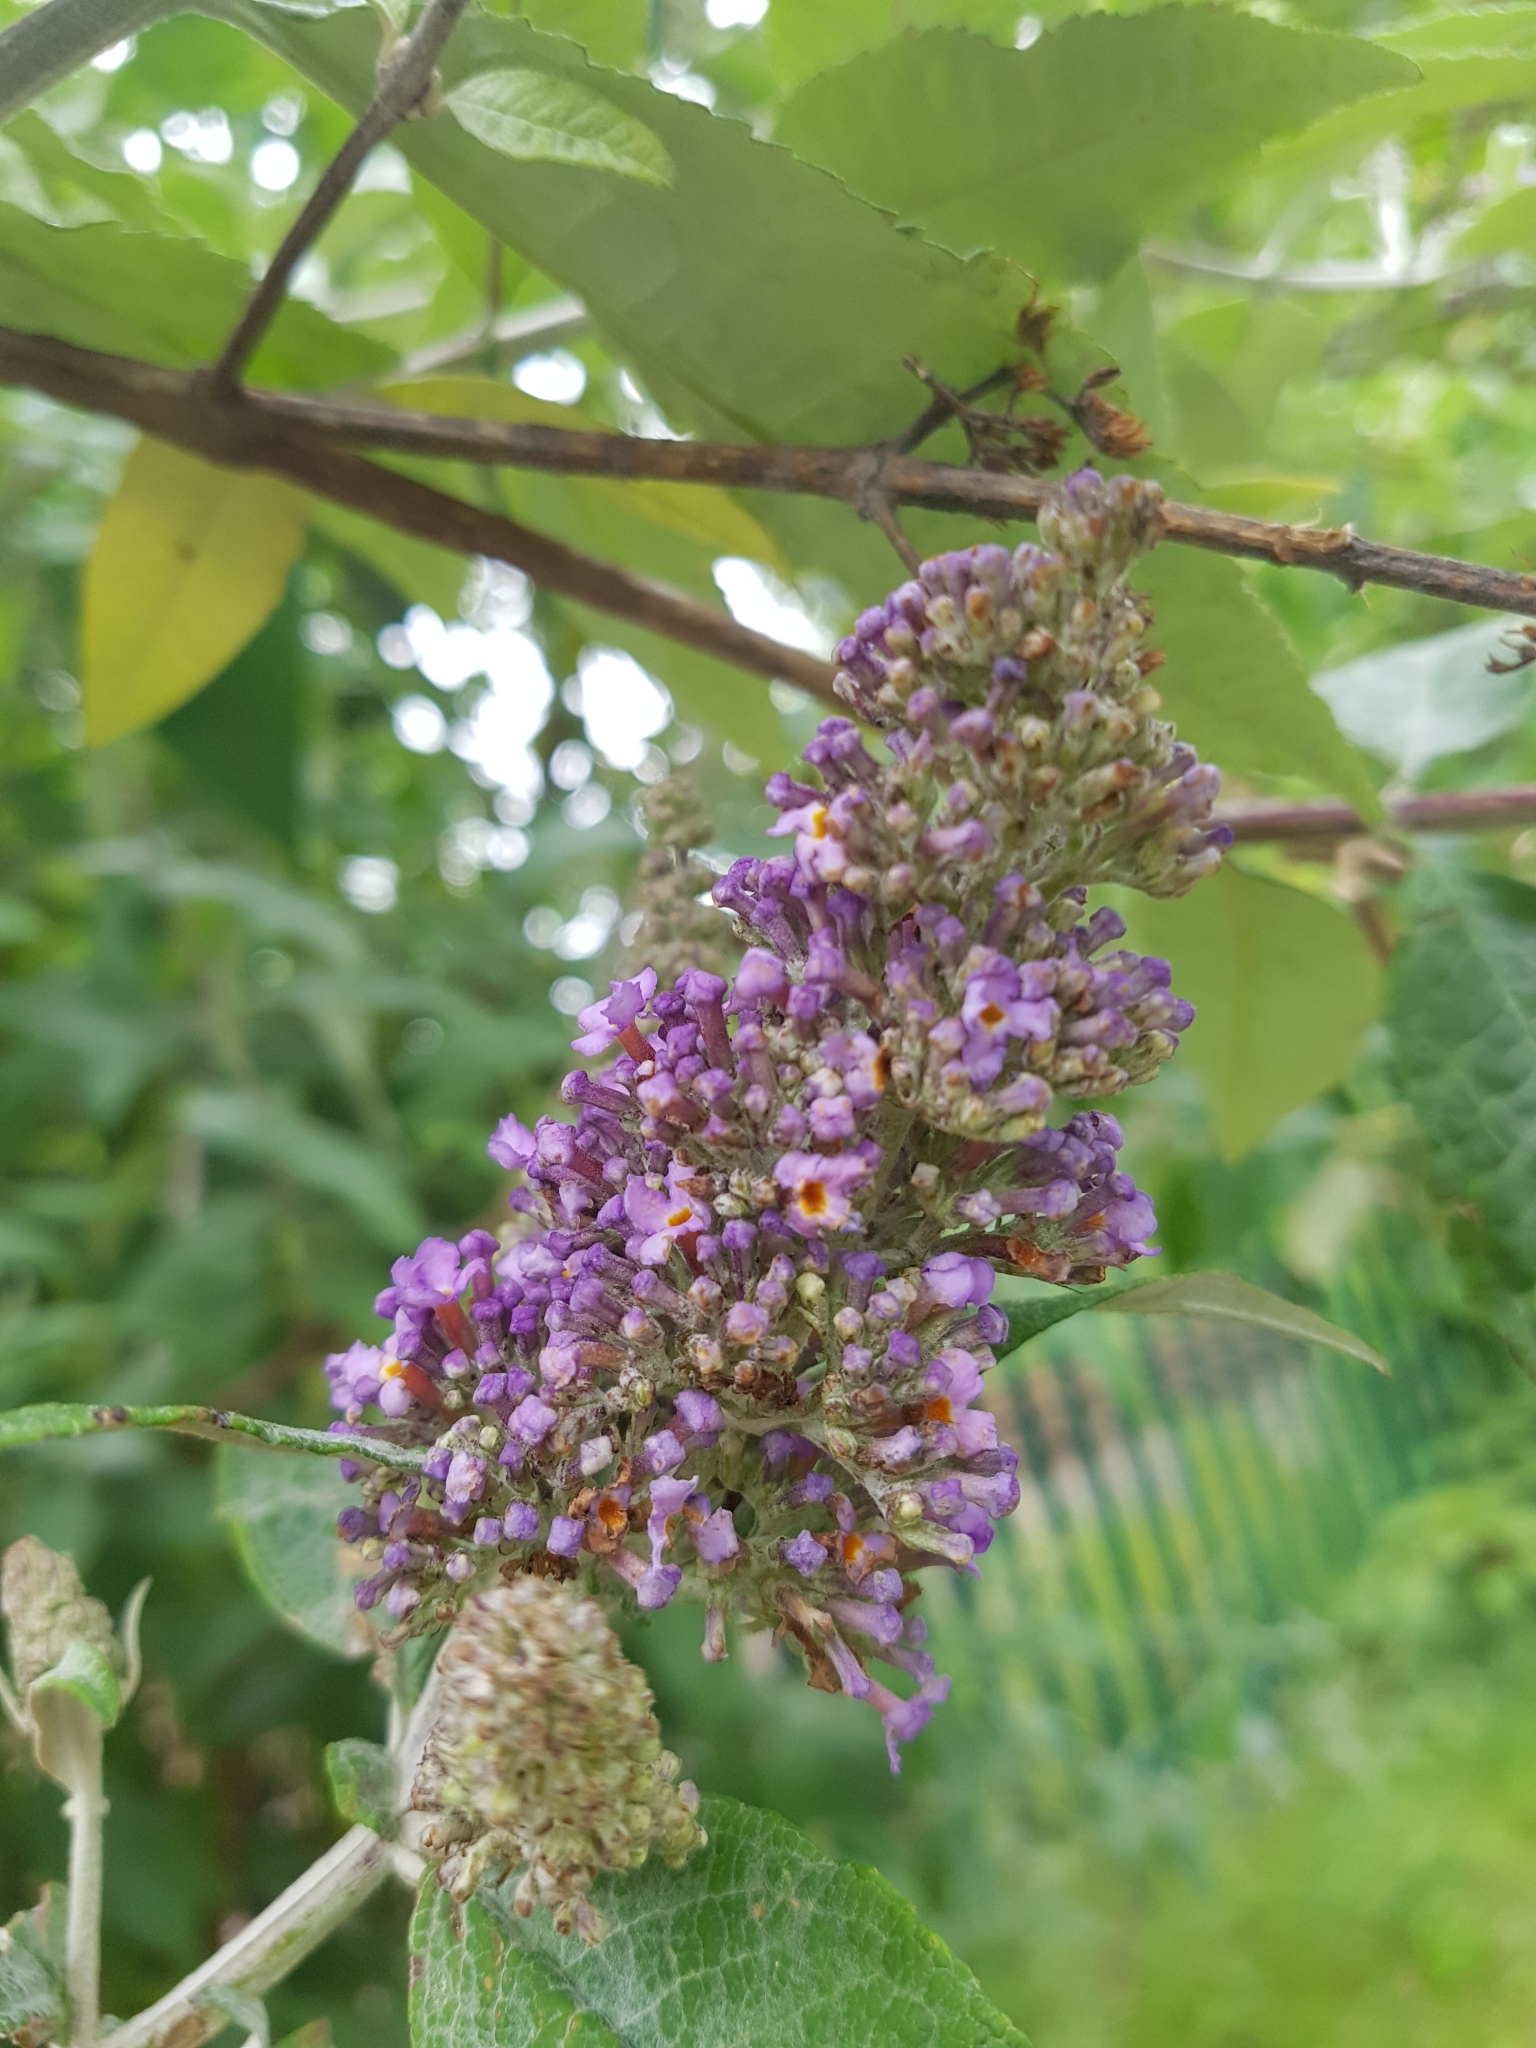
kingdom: Plantae
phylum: Tracheophyta
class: Magnoliopsida
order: Lamiales
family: Scrophulariaceae
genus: Buddleja
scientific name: Buddleja davidii
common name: Butterfly-bush
